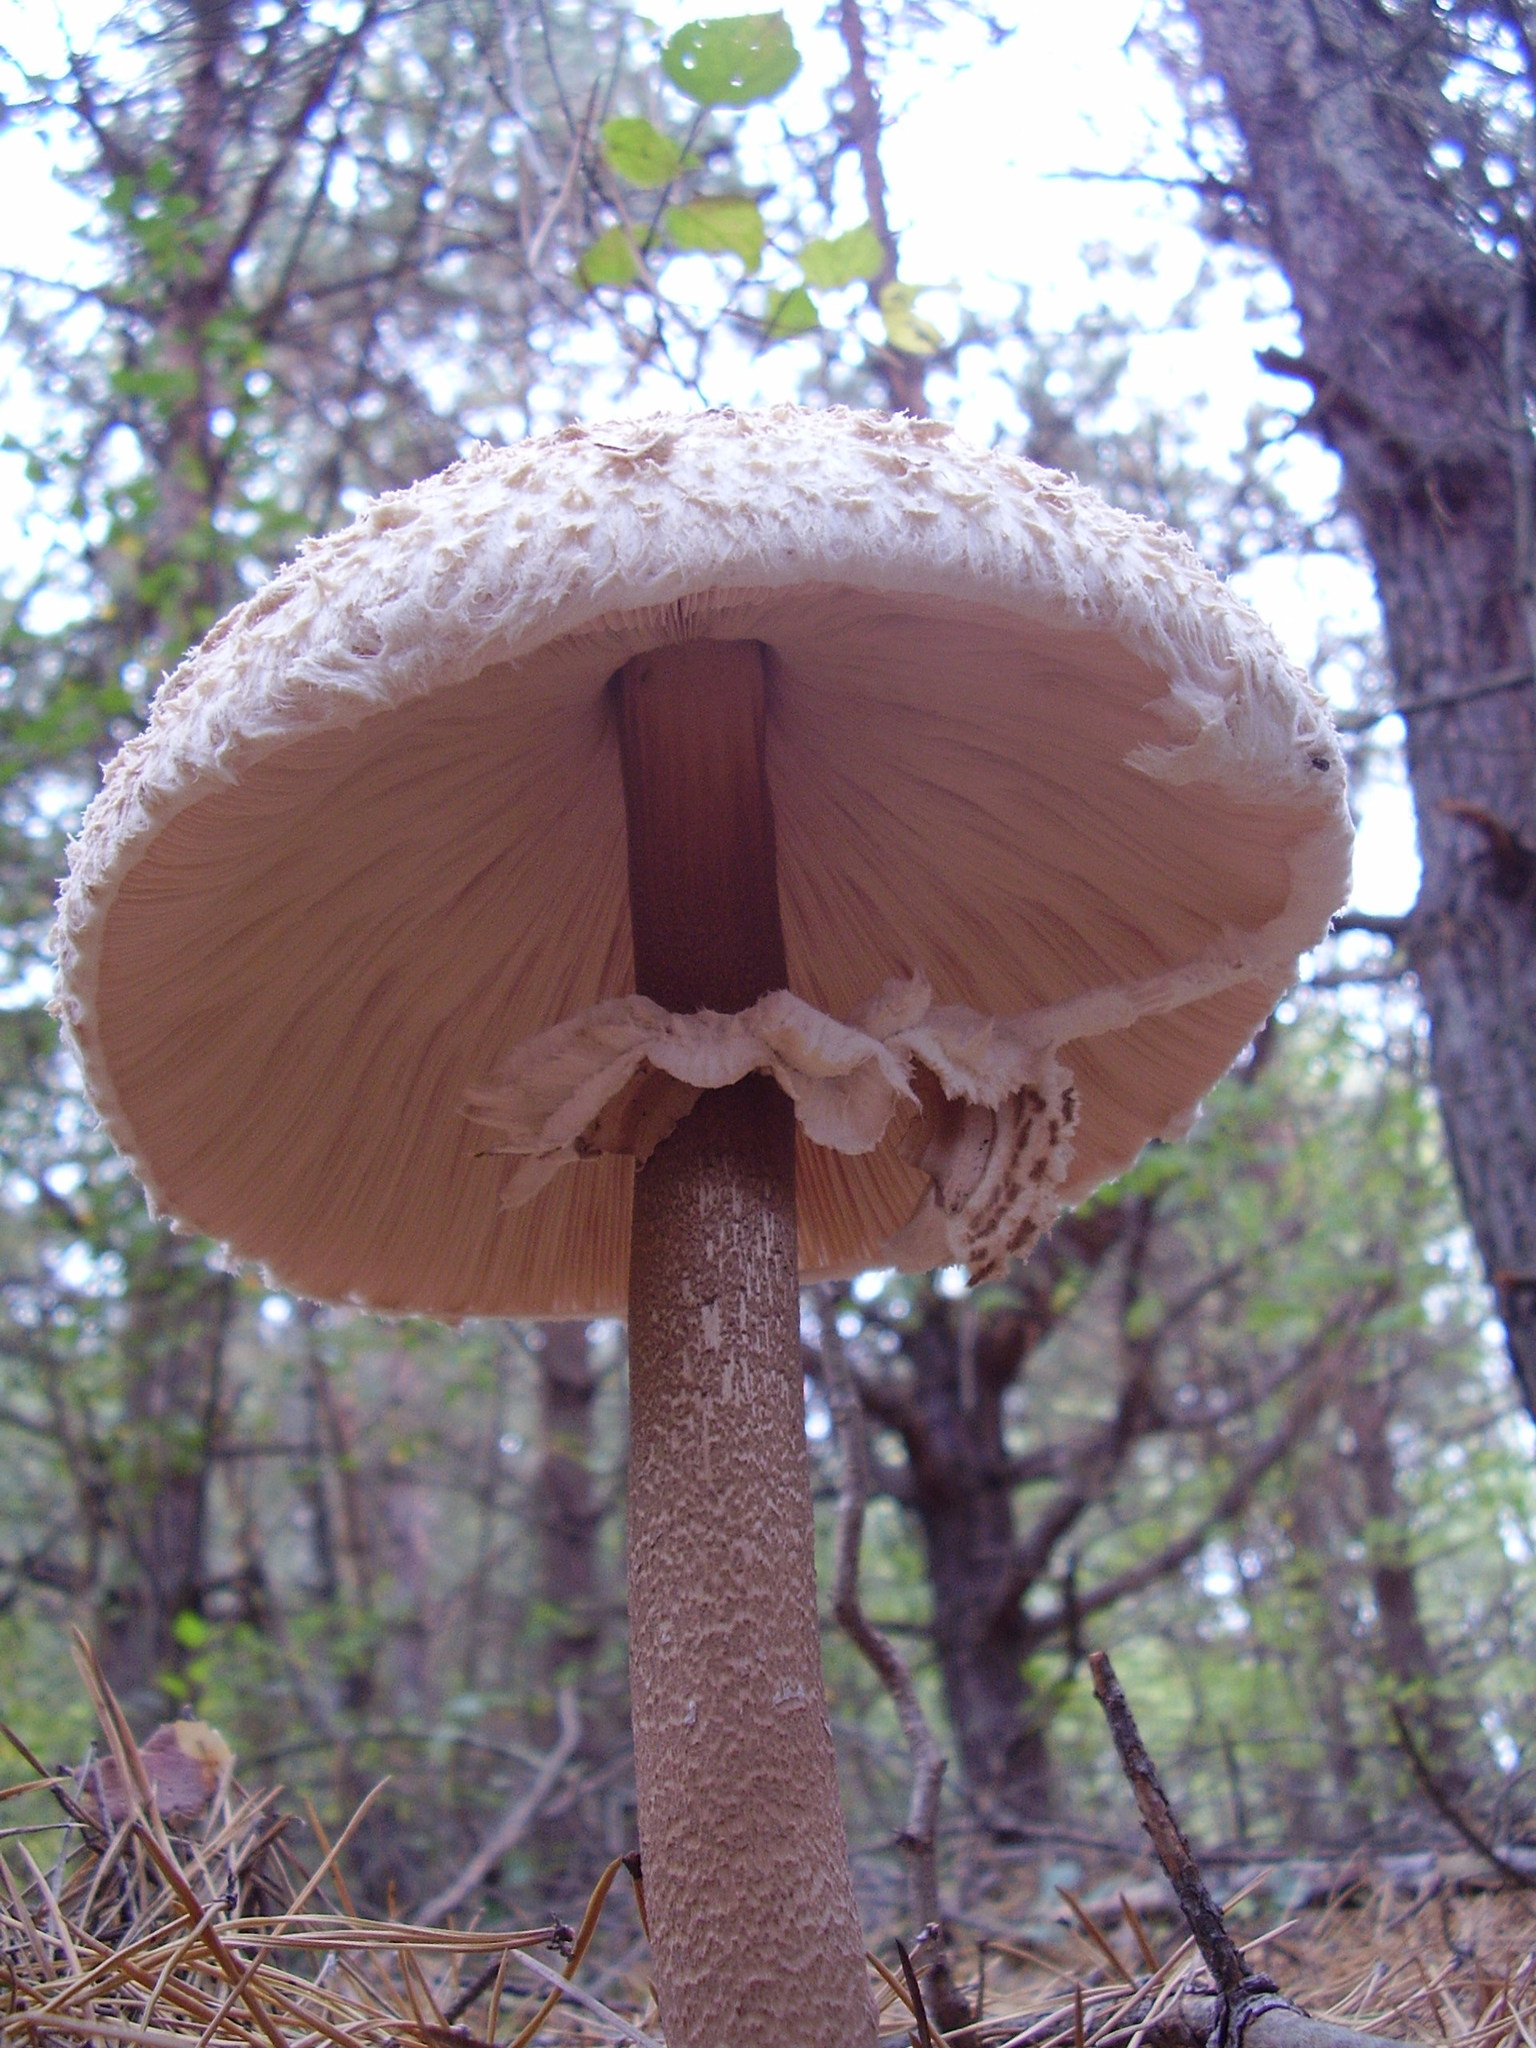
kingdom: Fungi
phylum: Basidiomycota
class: Agaricomycetes
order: Agaricales
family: Agaricaceae
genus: Macrolepiota
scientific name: Macrolepiota procera
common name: Parasol
